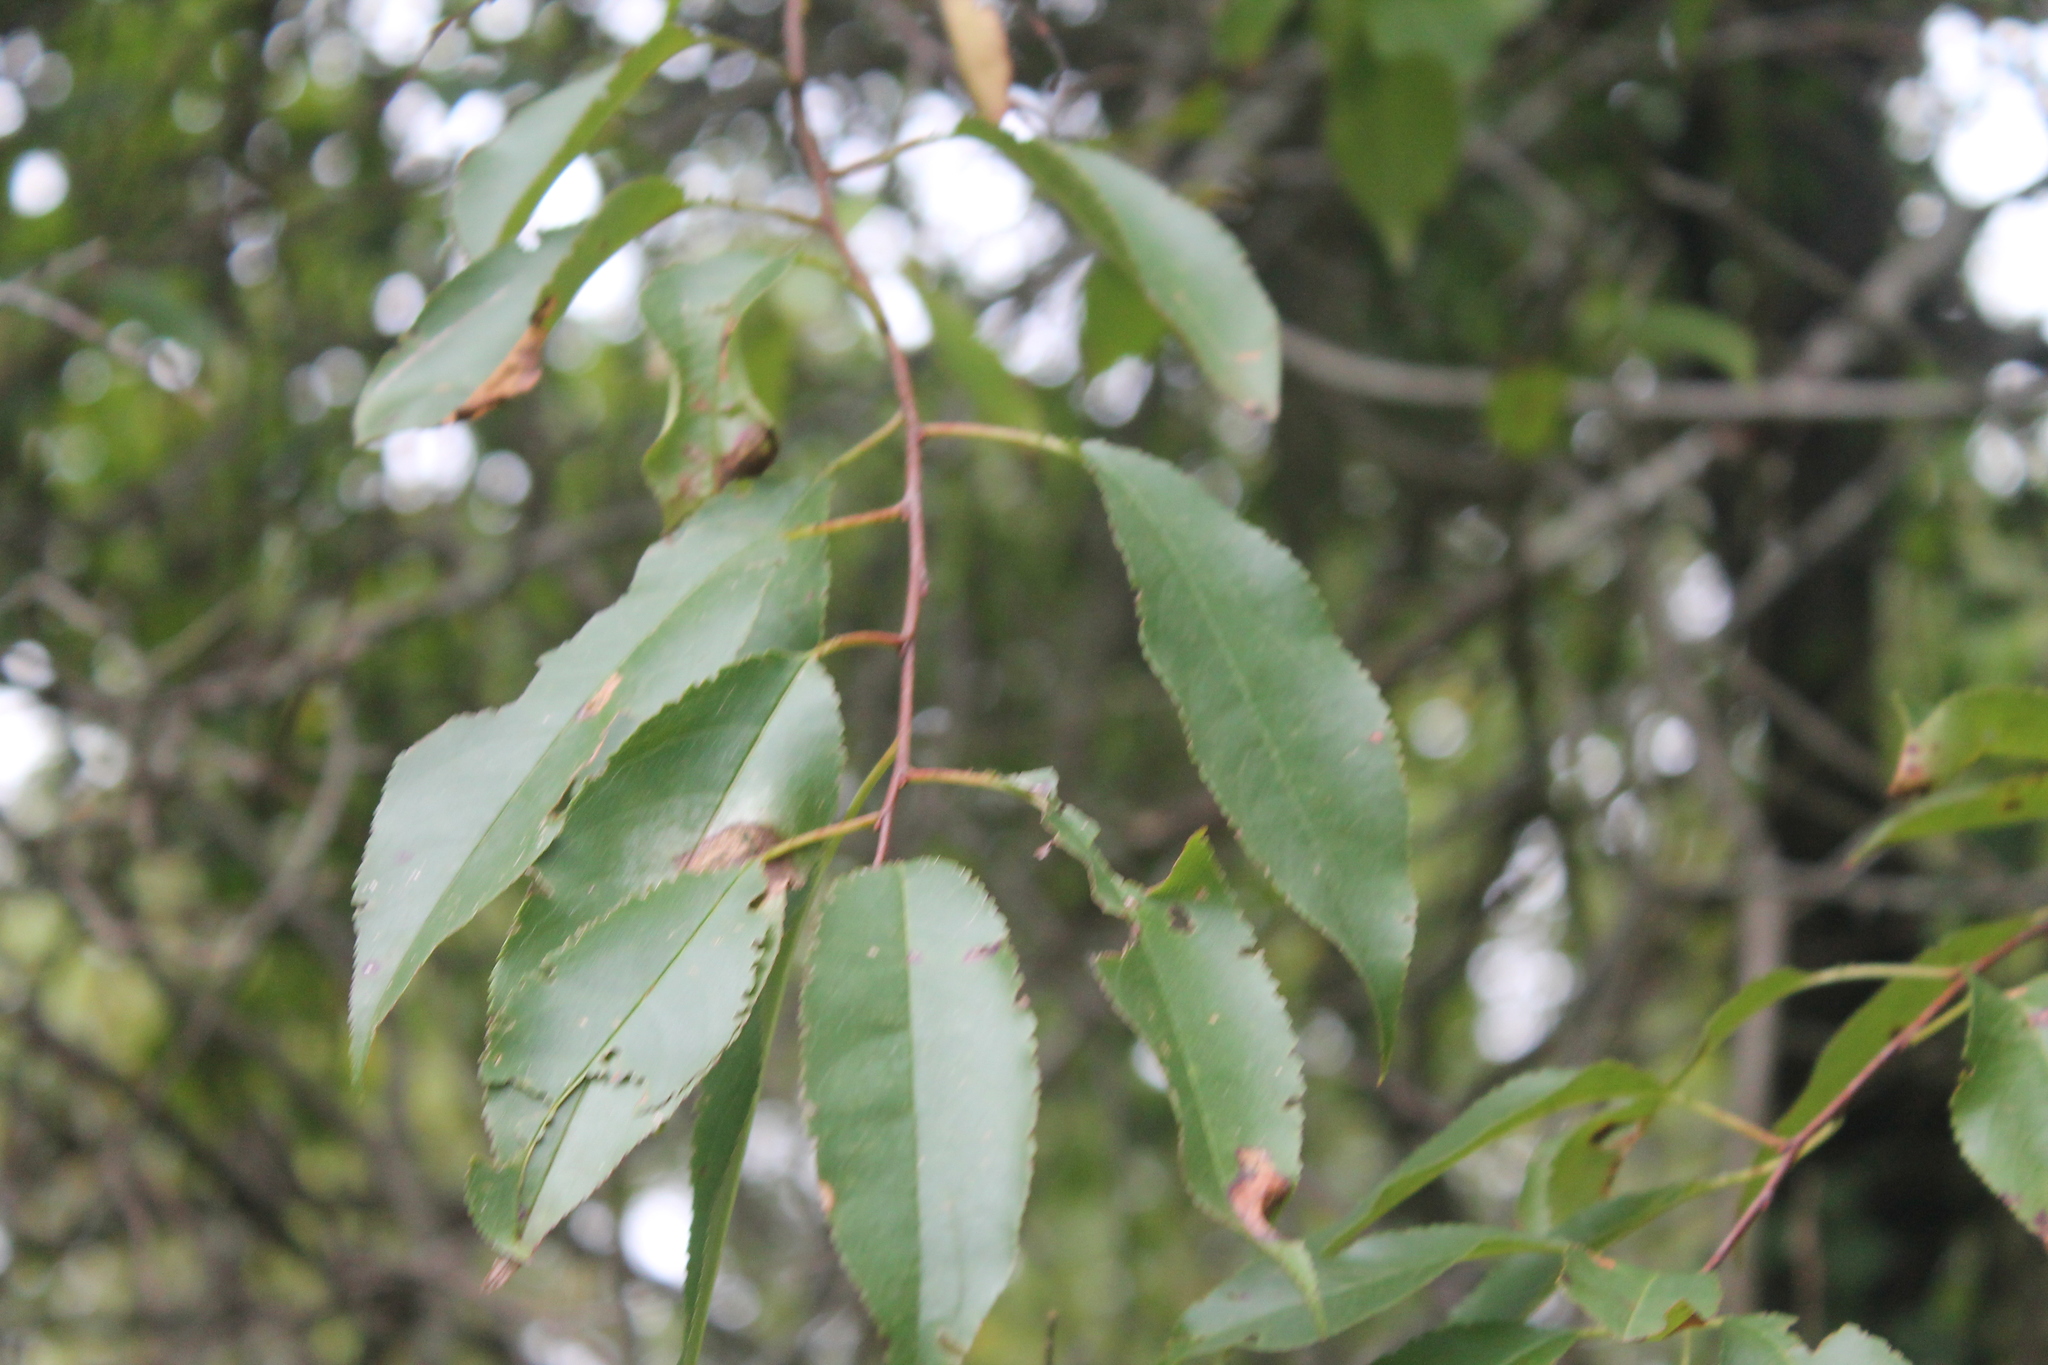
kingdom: Plantae
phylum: Tracheophyta
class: Magnoliopsida
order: Rosales
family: Rosaceae
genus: Prunus
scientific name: Prunus serotina
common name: Black cherry
